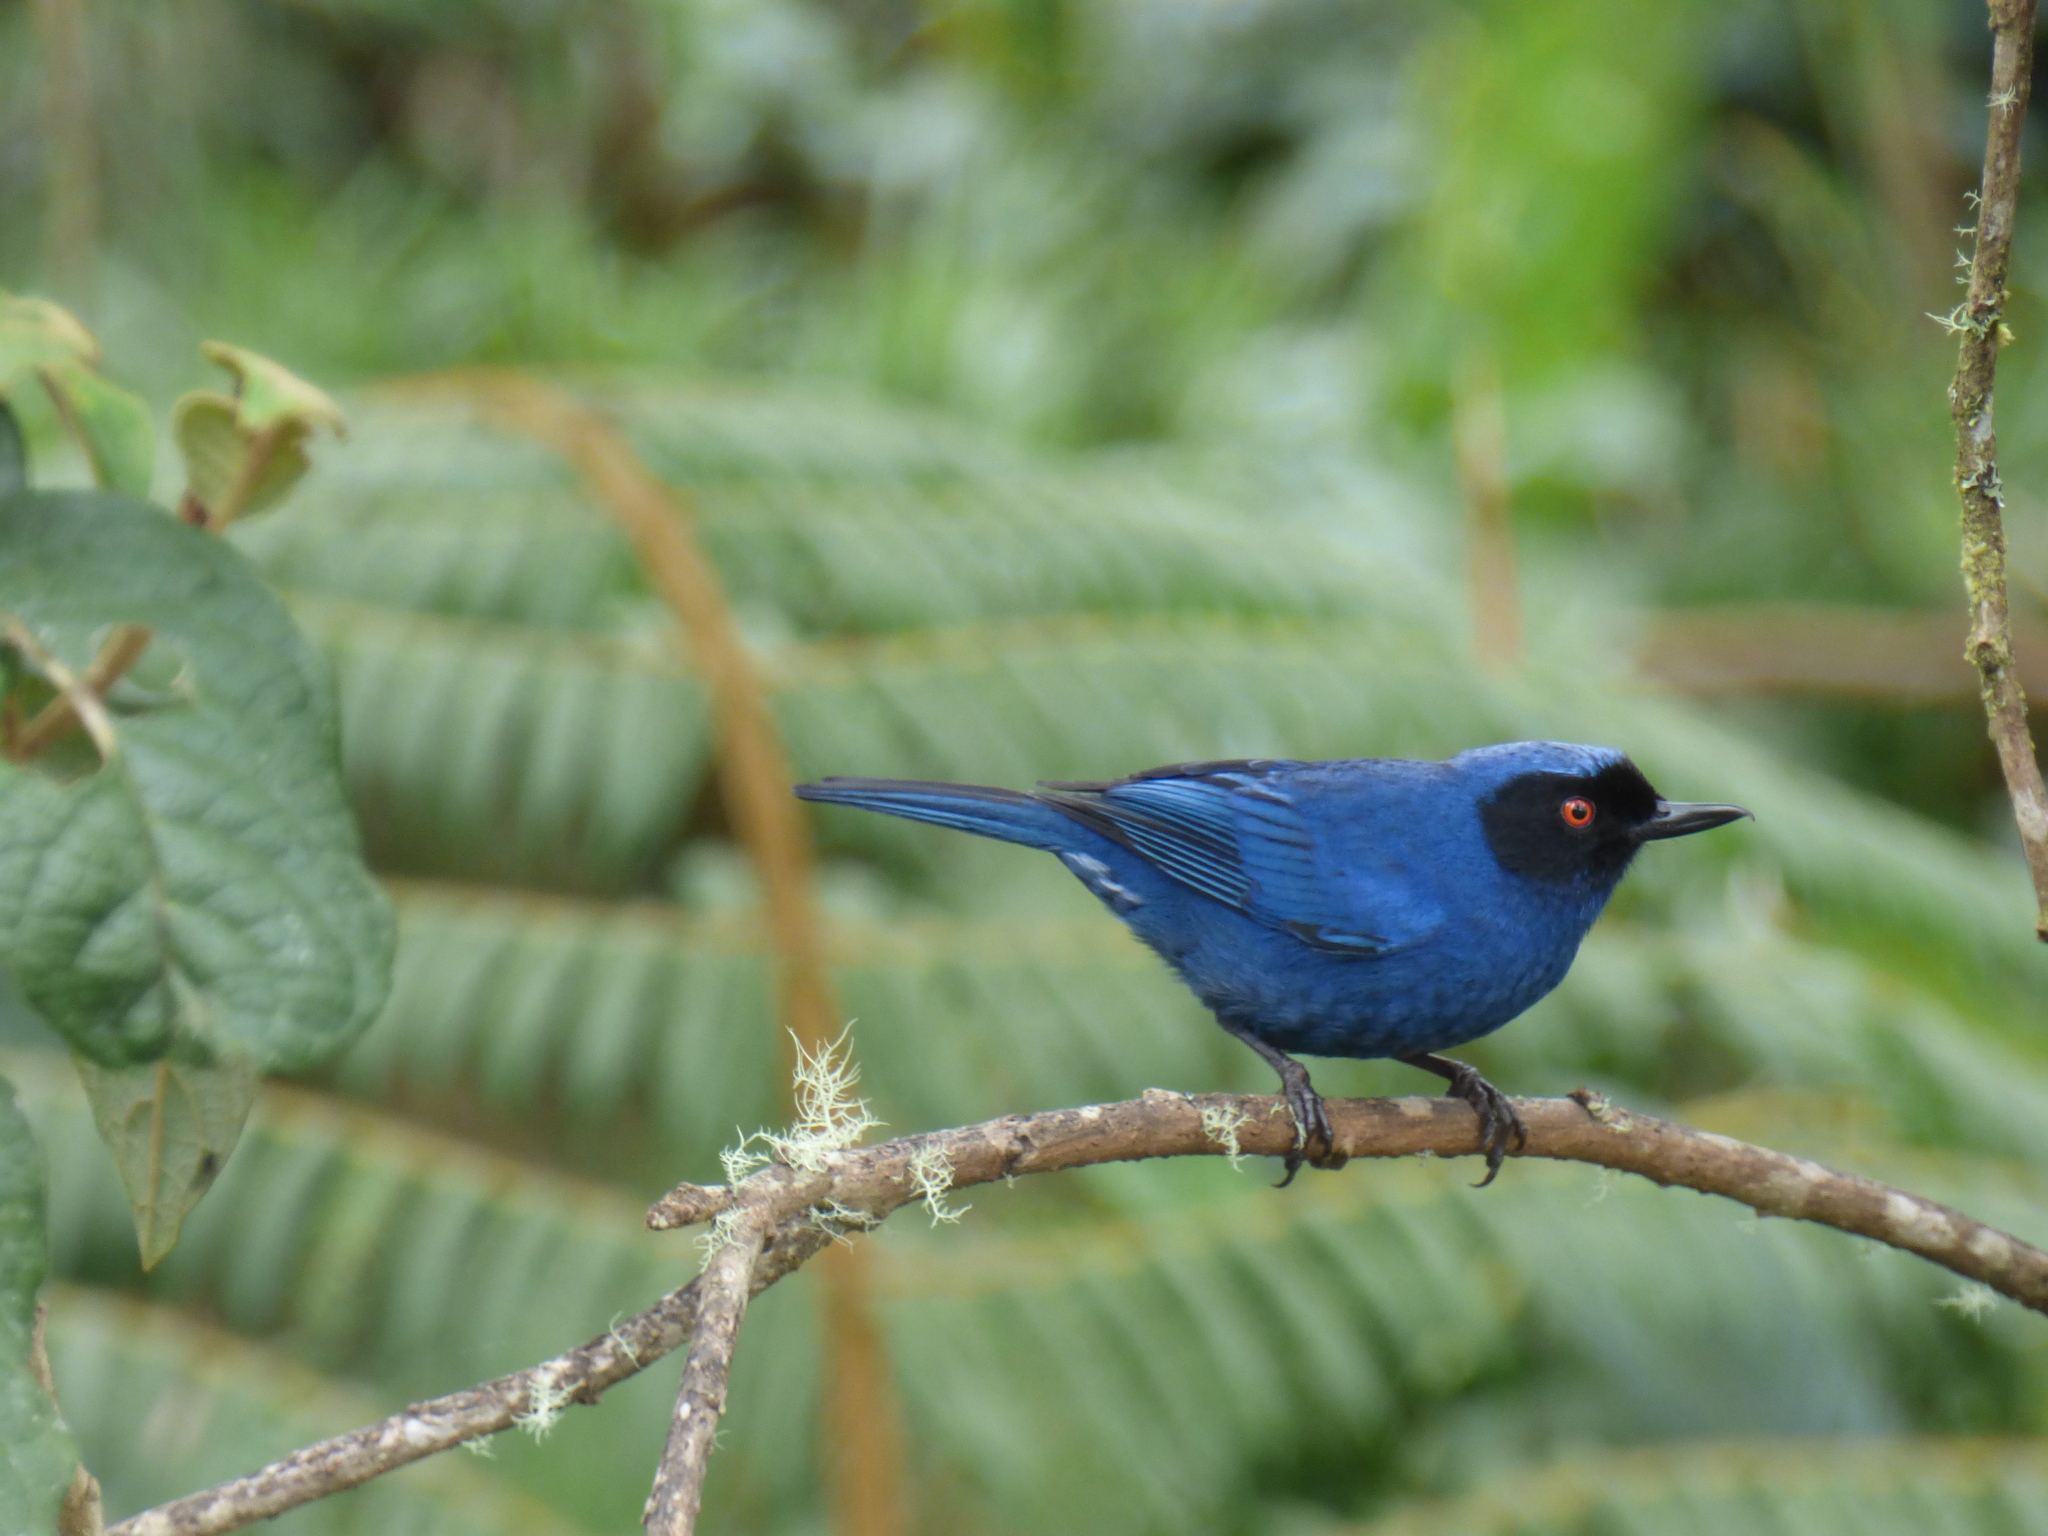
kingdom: Animalia
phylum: Chordata
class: Aves
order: Passeriformes
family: Thraupidae
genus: Diglossa
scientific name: Diglossa cyanea
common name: Masked flowerpiercer
